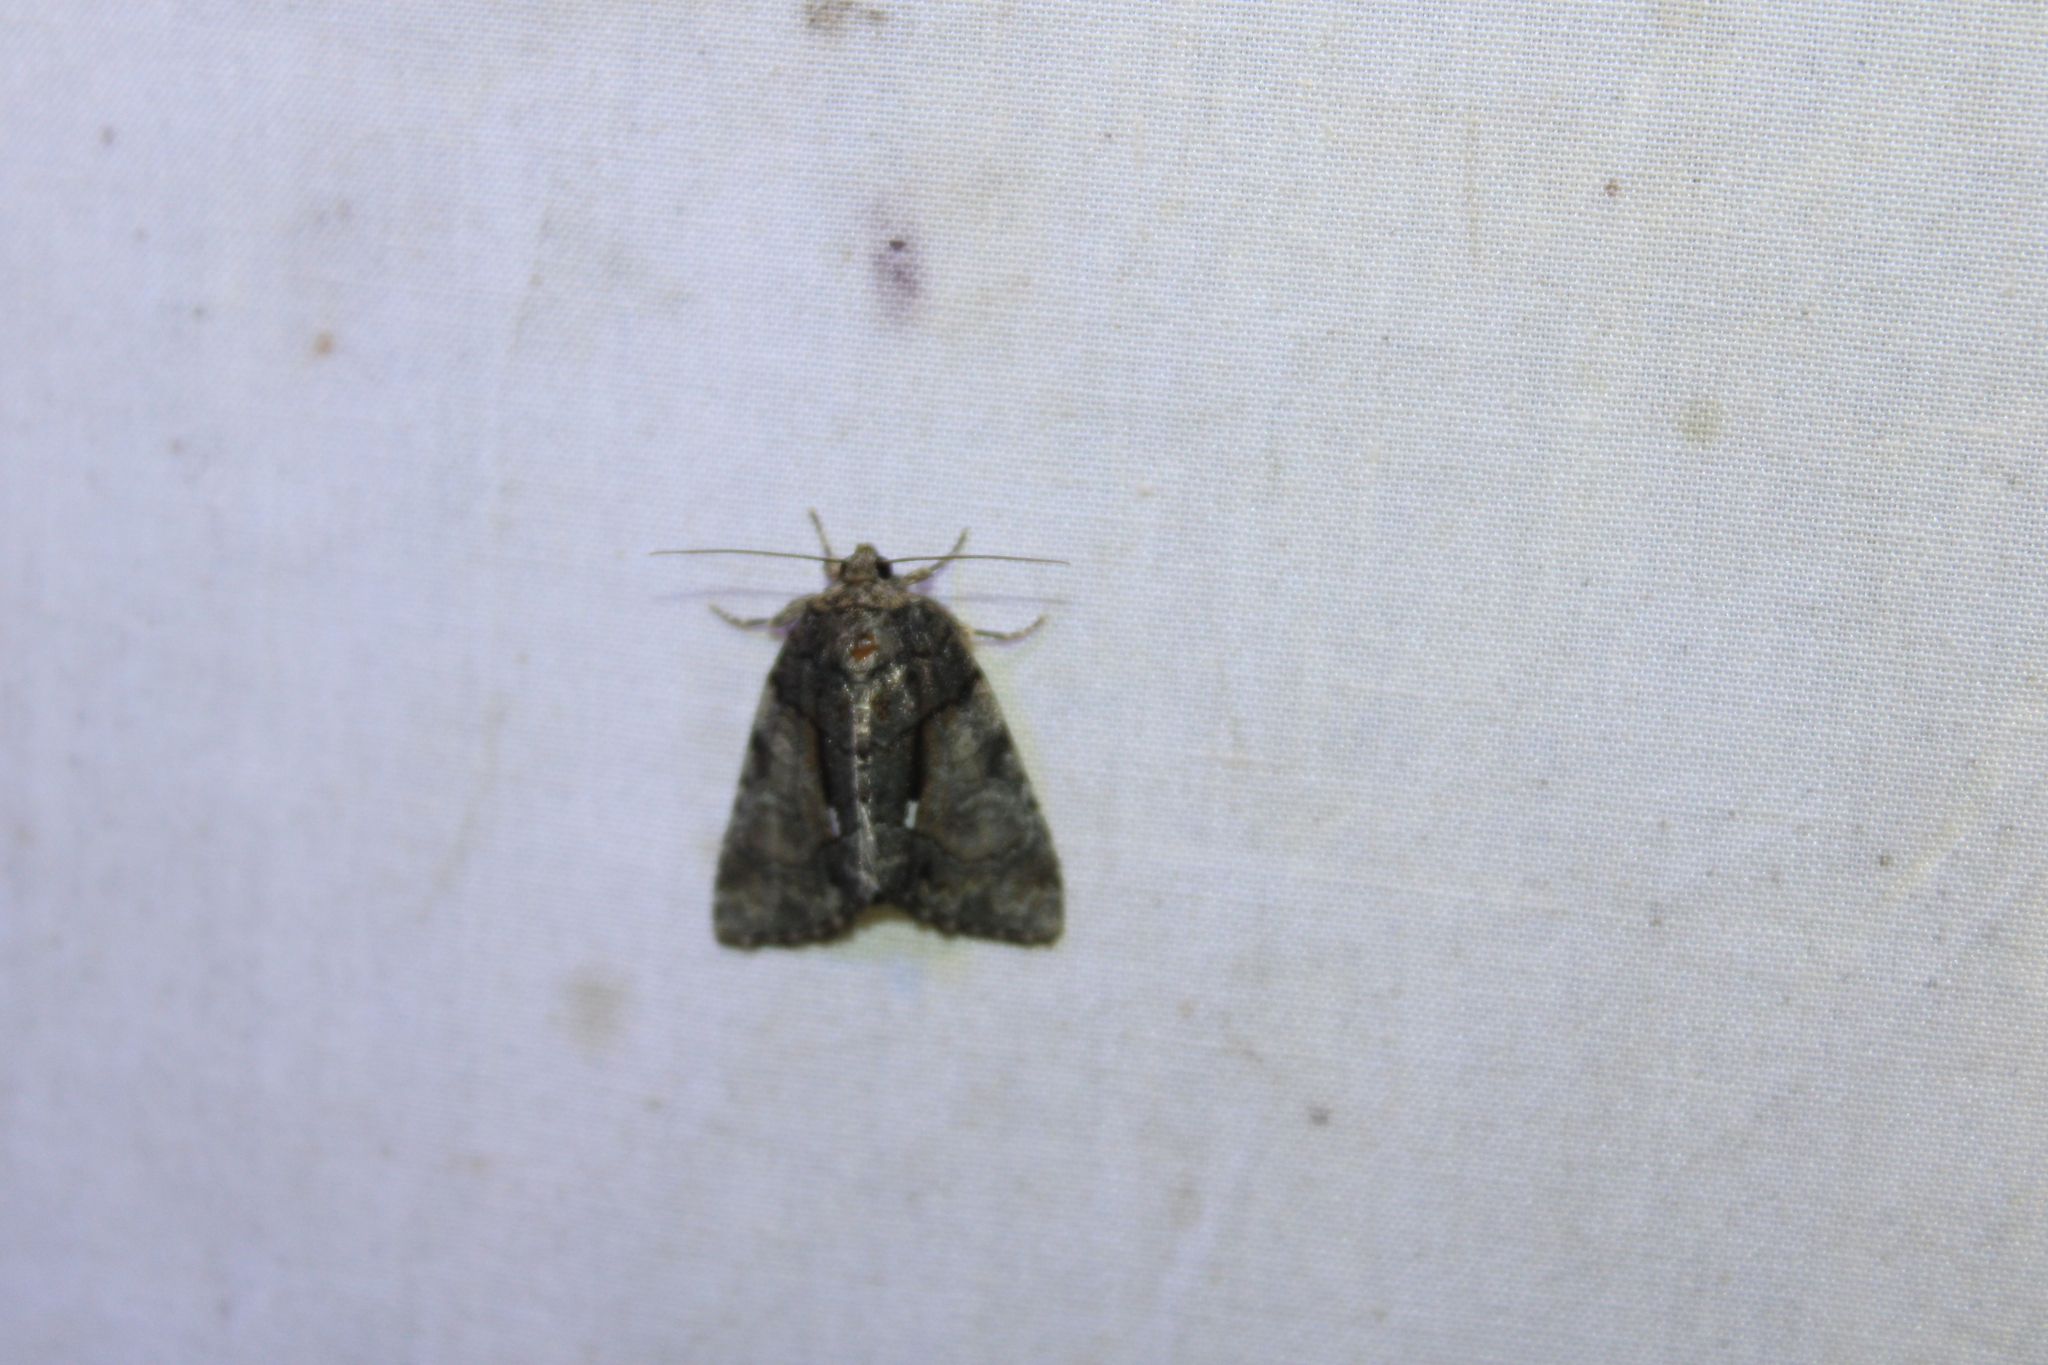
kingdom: Animalia
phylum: Arthropoda
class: Insecta
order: Lepidoptera
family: Noctuidae
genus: Chytonix
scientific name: Chytonix palliatricula
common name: Cloaked marvel
